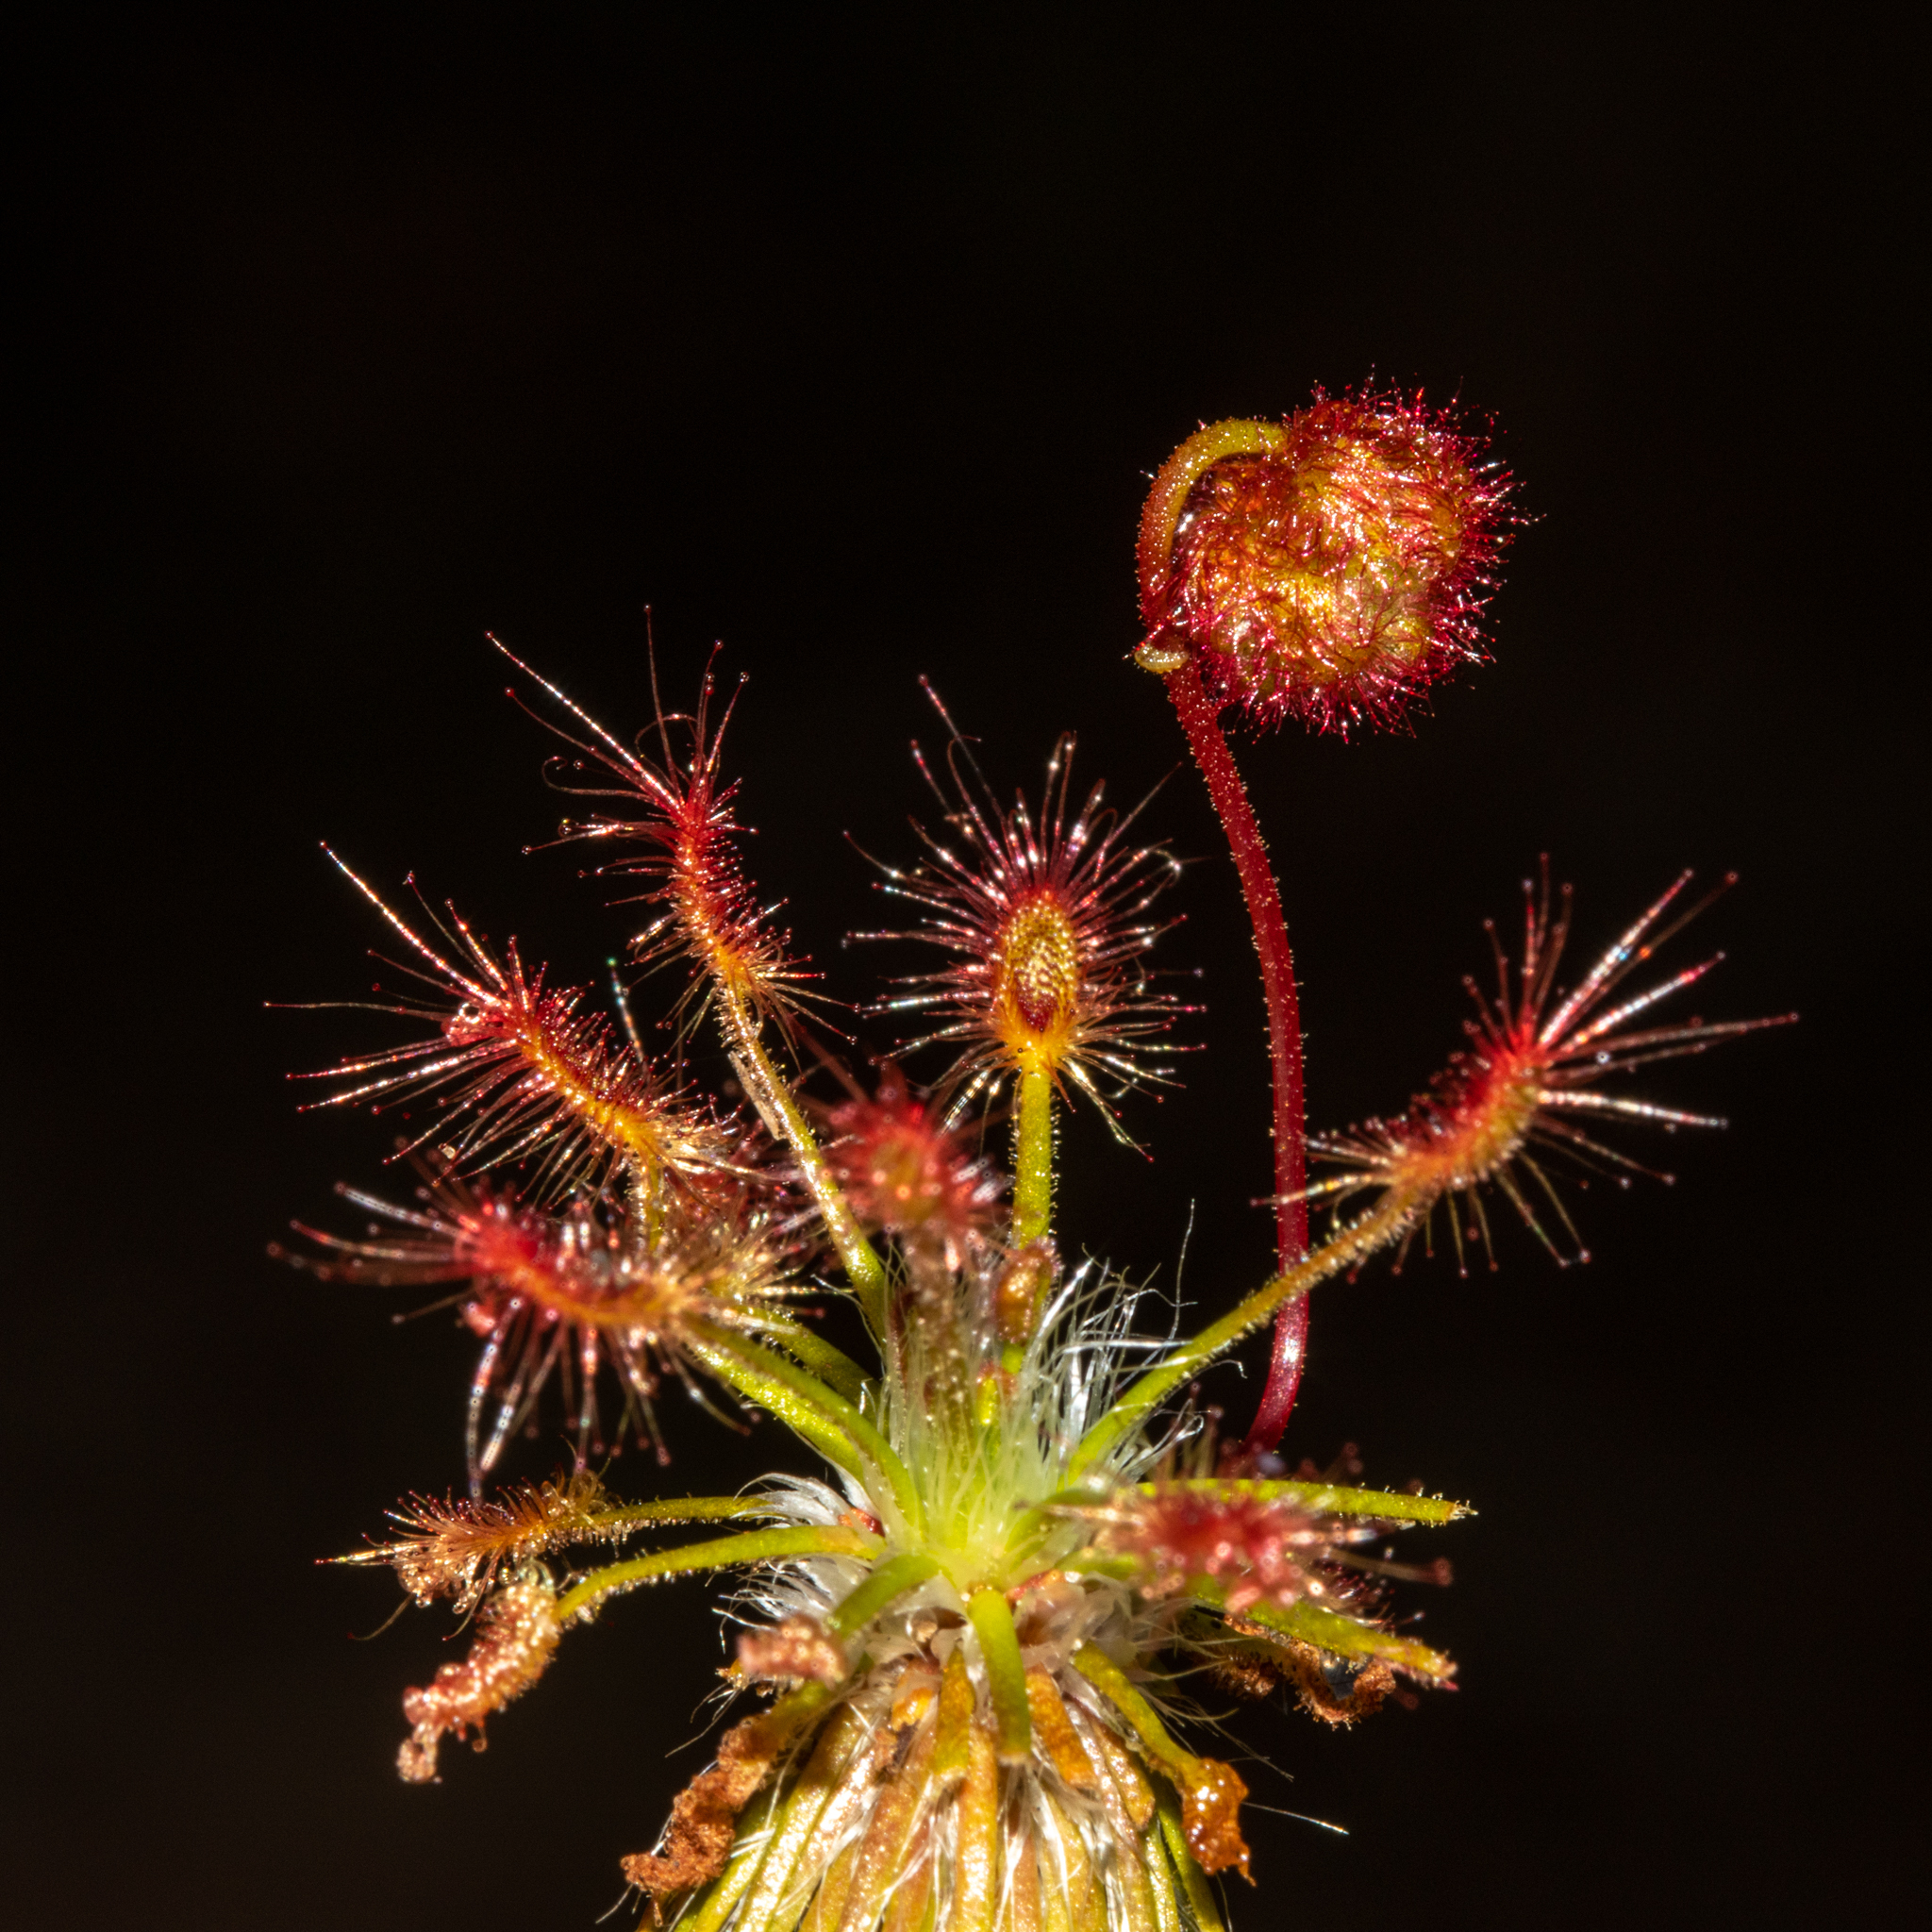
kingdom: Plantae
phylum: Tracheophyta
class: Magnoliopsida
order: Caryophyllales
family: Droseraceae
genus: Drosera
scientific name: Drosera barbigera
